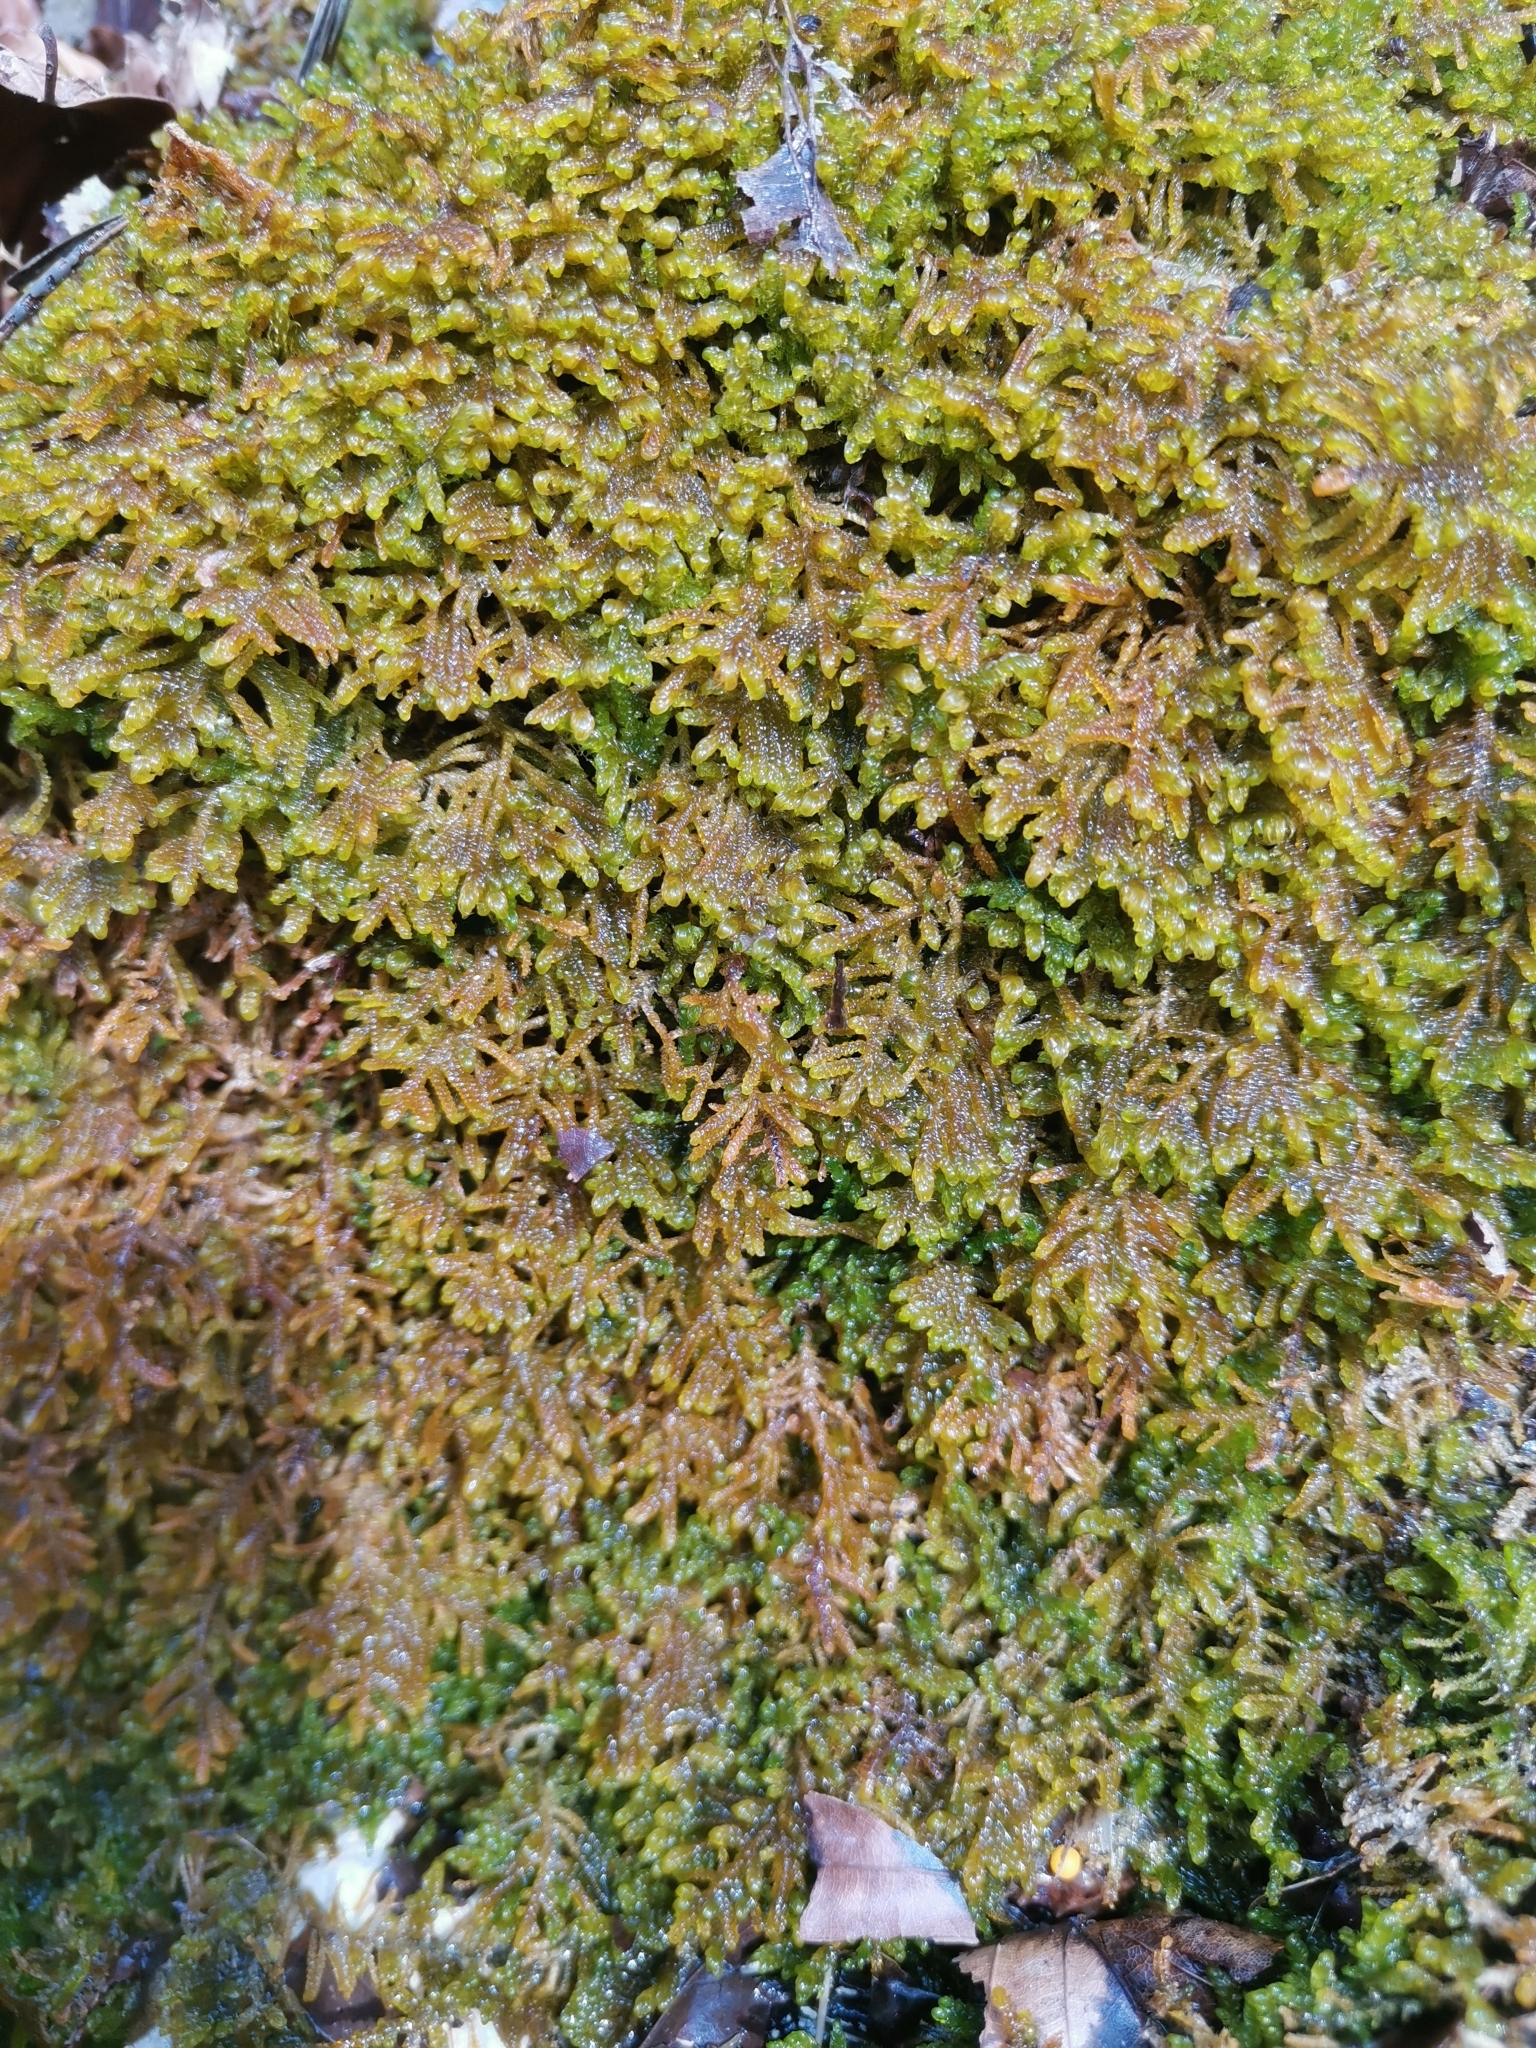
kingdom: Plantae
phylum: Bryophyta
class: Bryopsida
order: Hypnales
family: Amblystegiaceae
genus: Palustriella
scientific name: Palustriella commutata
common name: Curled hook-moss
